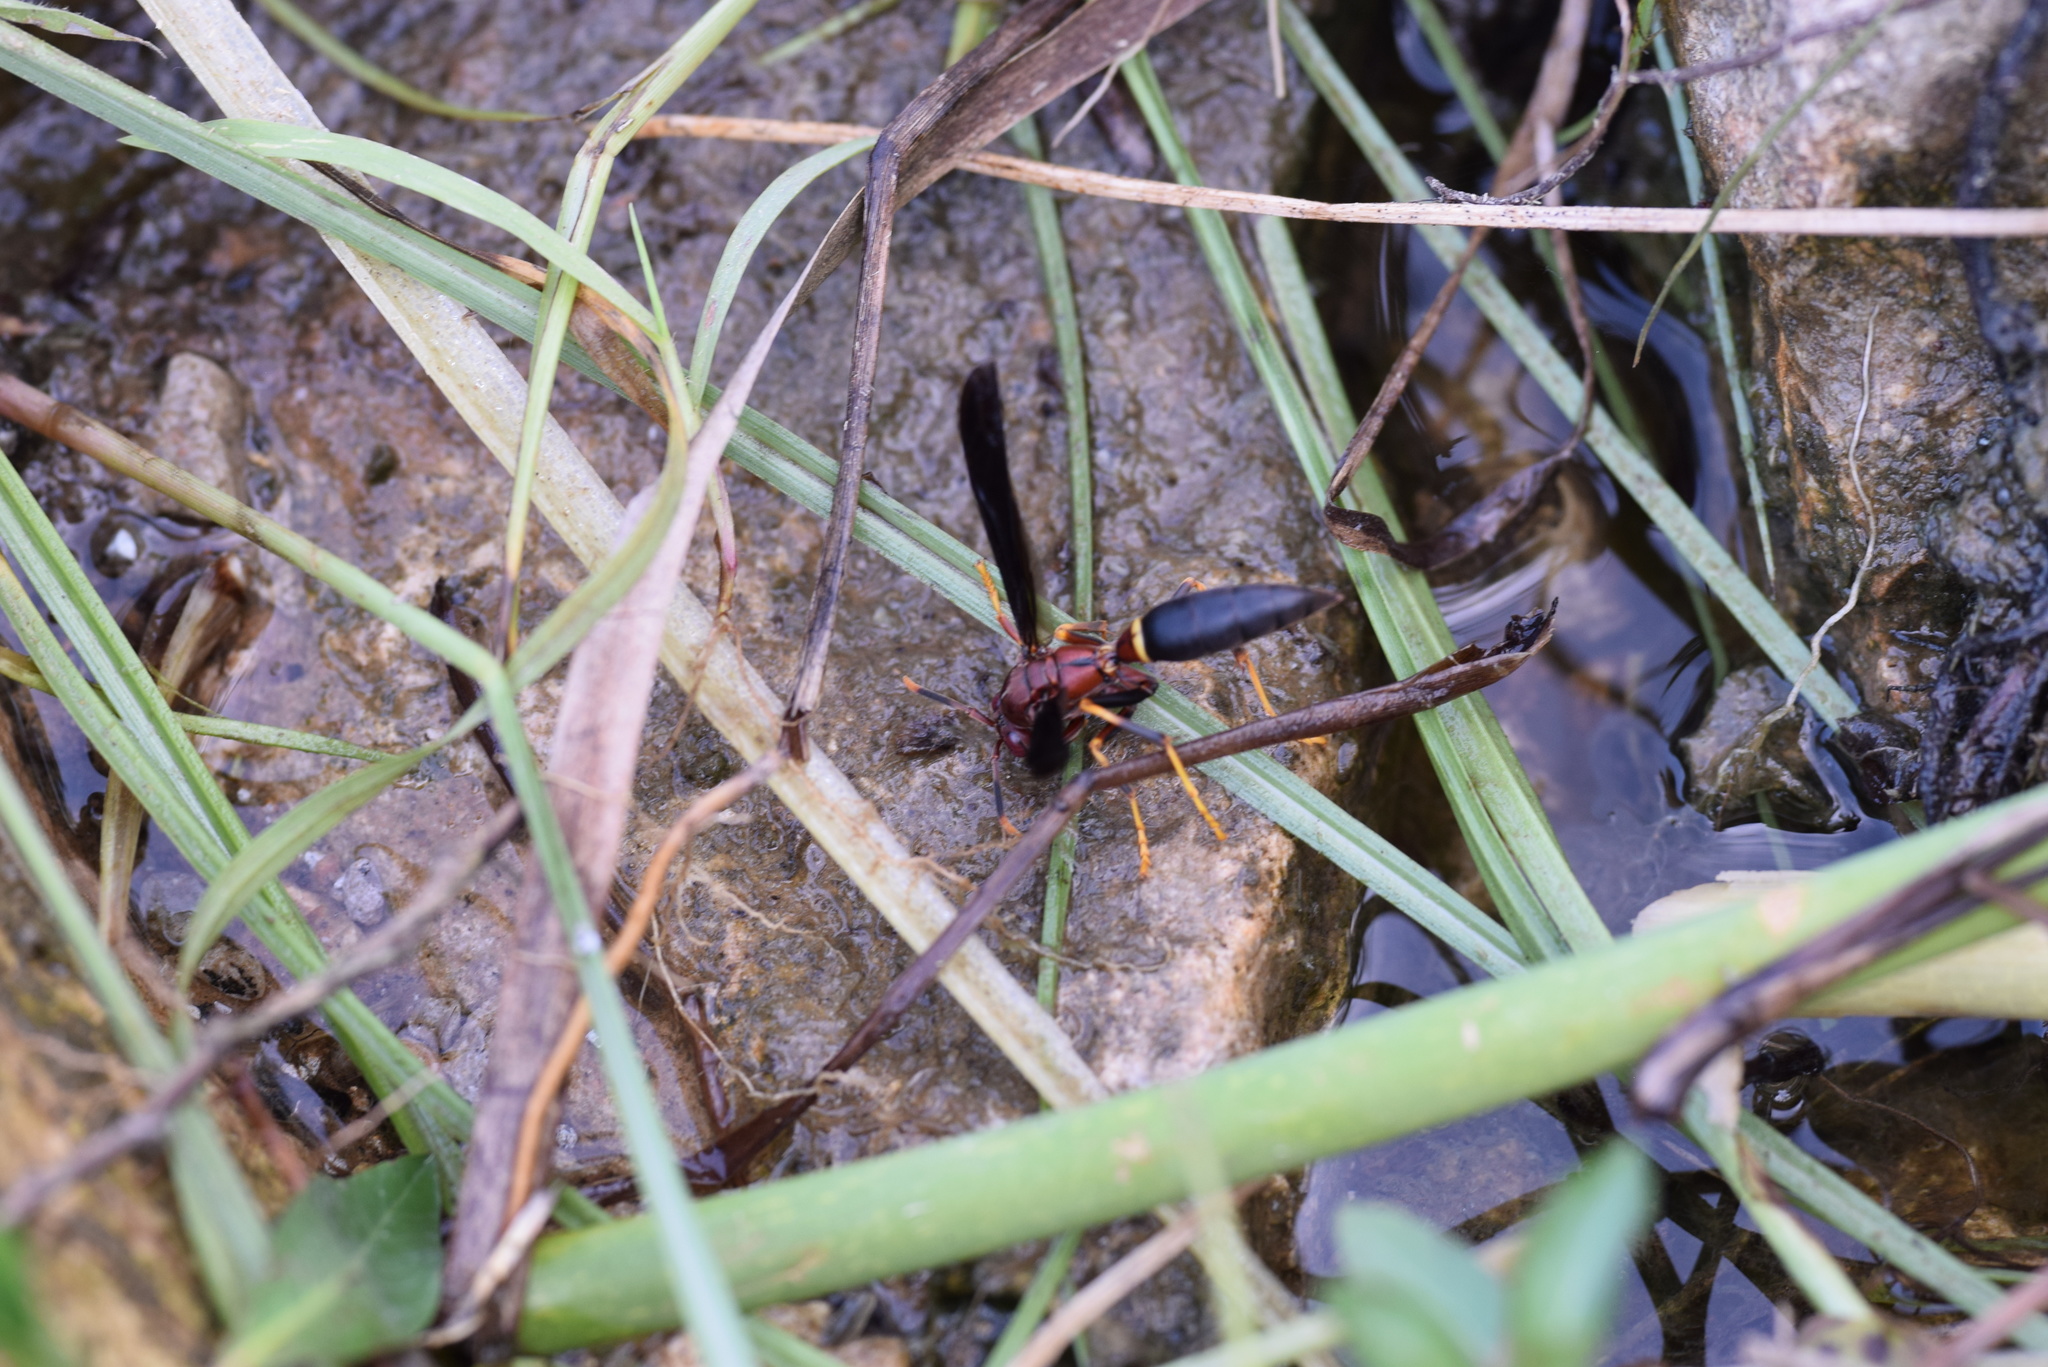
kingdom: Animalia
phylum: Arthropoda
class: Insecta
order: Hymenoptera
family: Eumenidae
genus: Polistes
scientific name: Polistes annularis
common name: Ringed paper wasp
